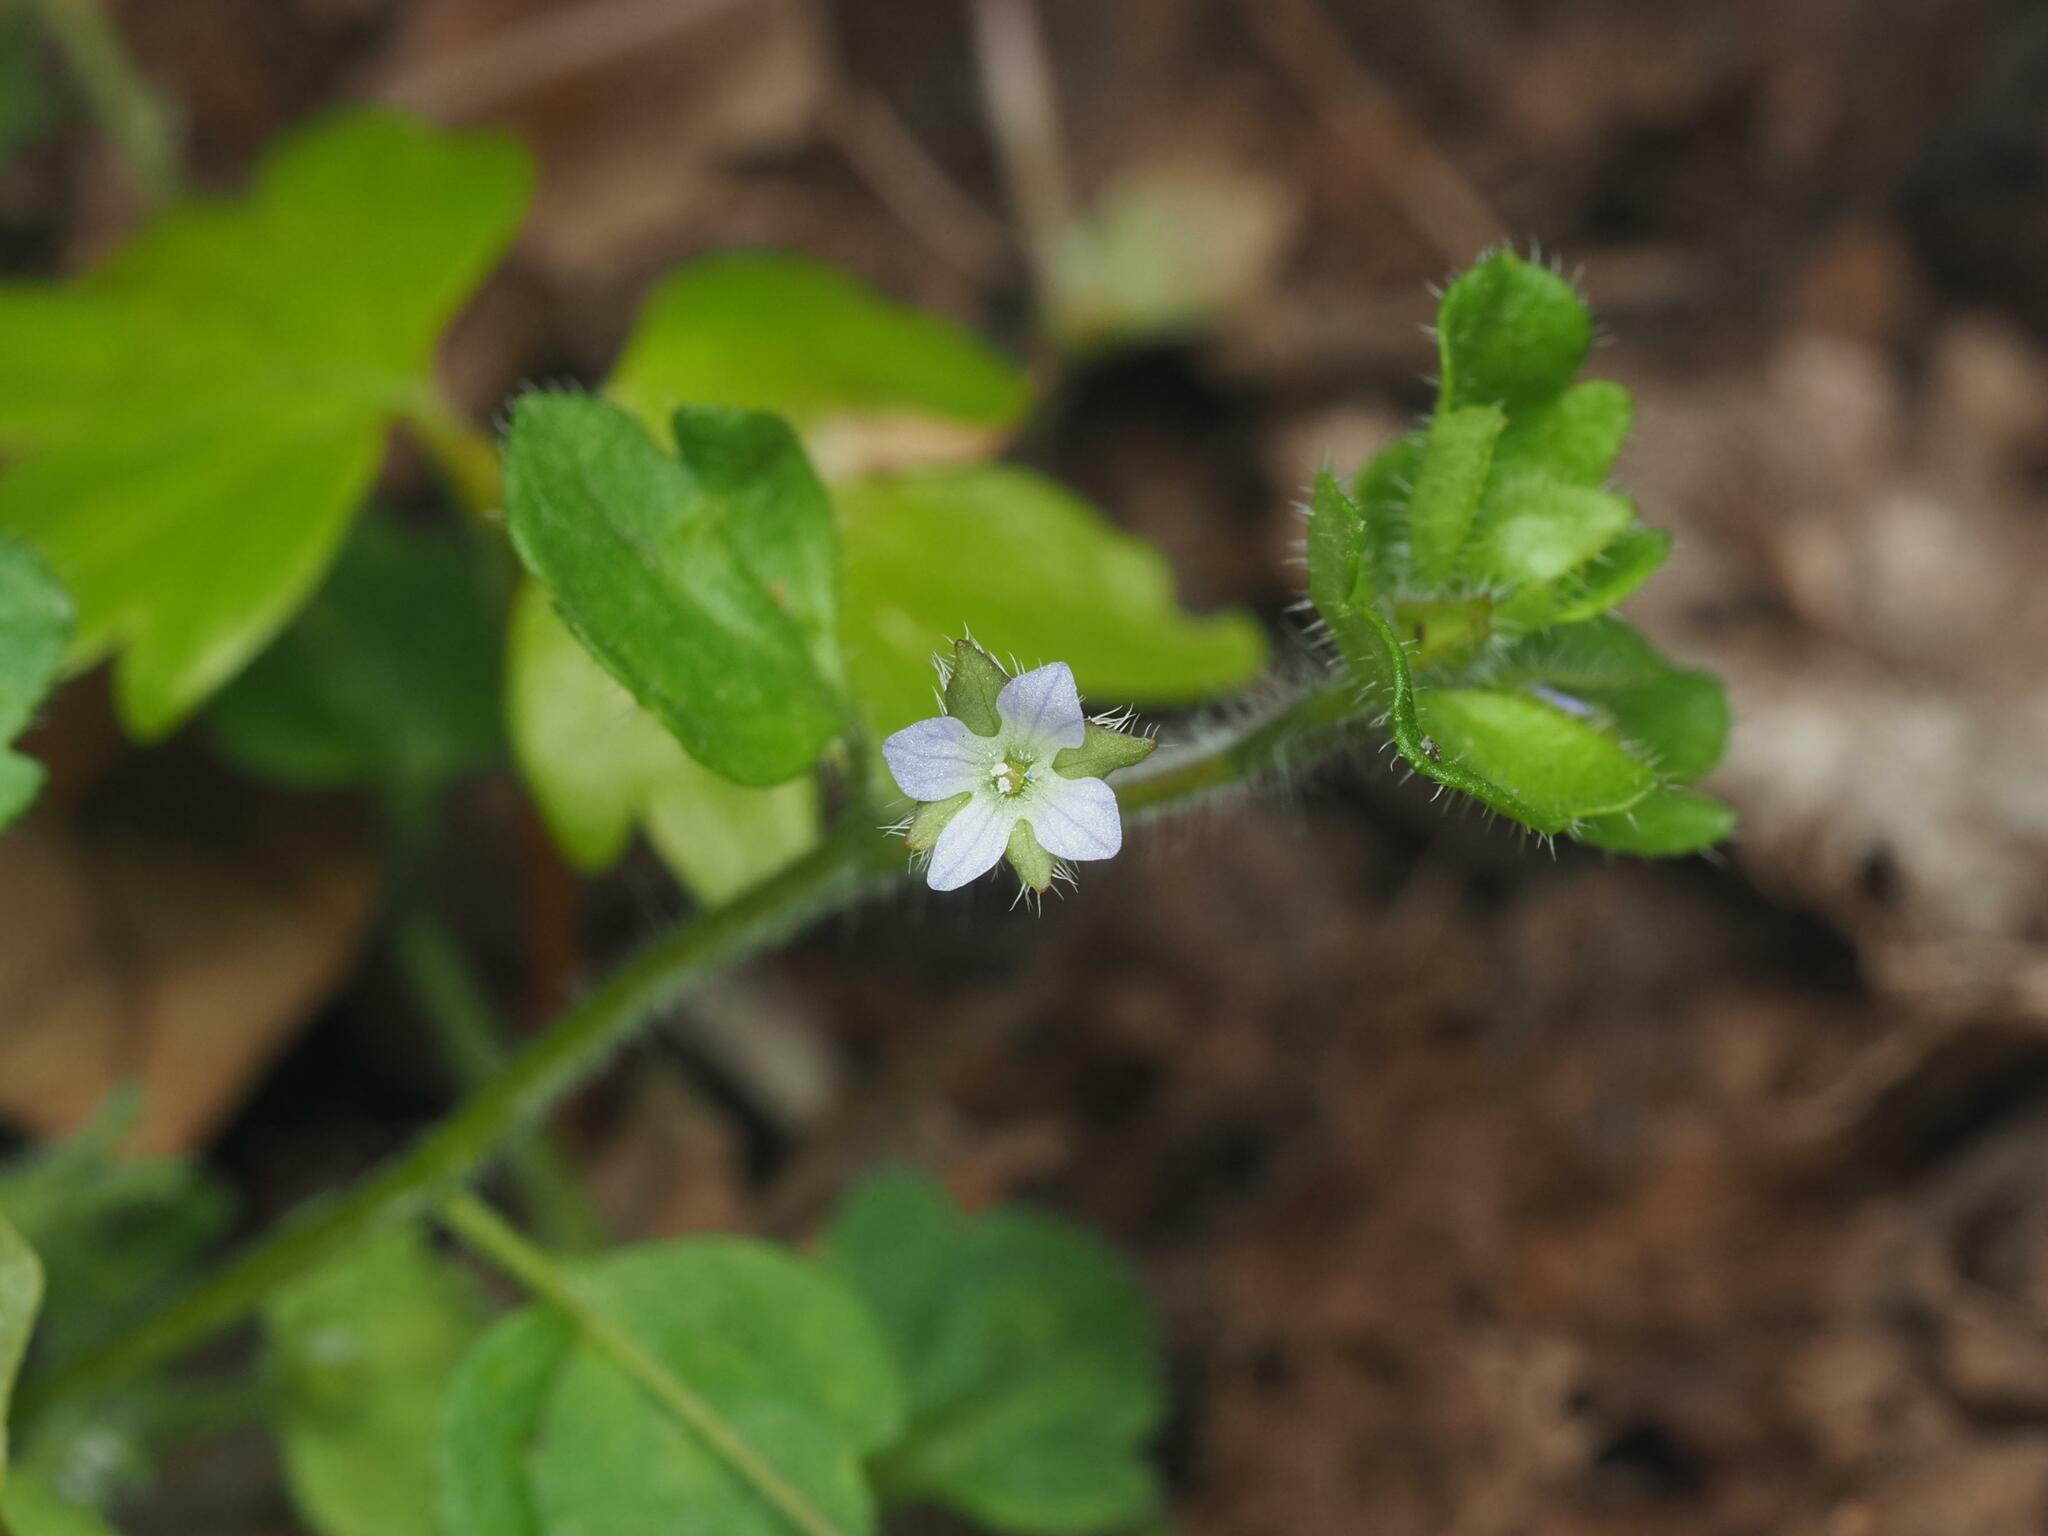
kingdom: Plantae
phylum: Tracheophyta
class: Magnoliopsida
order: Lamiales
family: Plantaginaceae
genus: Veronica
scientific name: Veronica sublobata
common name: False ivy-leaved speedwell
